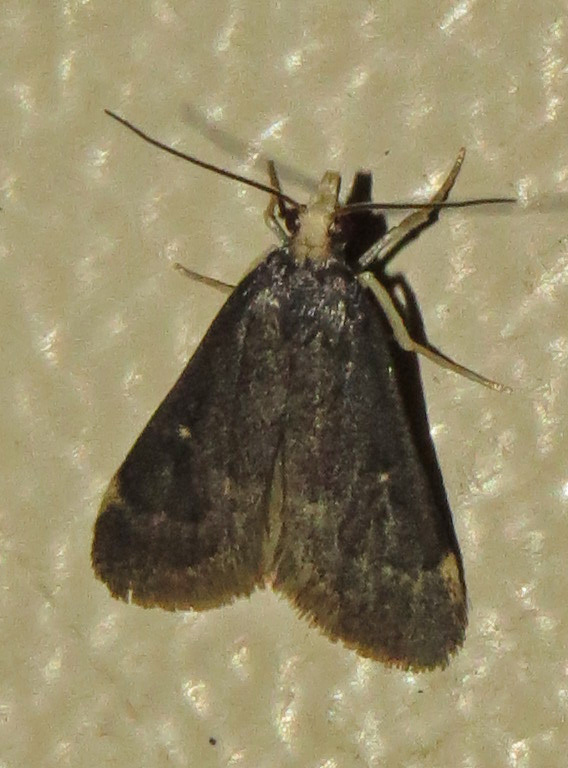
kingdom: Animalia
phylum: Arthropoda
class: Insecta
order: Lepidoptera
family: Crambidae
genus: Loxostegopsis
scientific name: Loxostegopsis curialis
